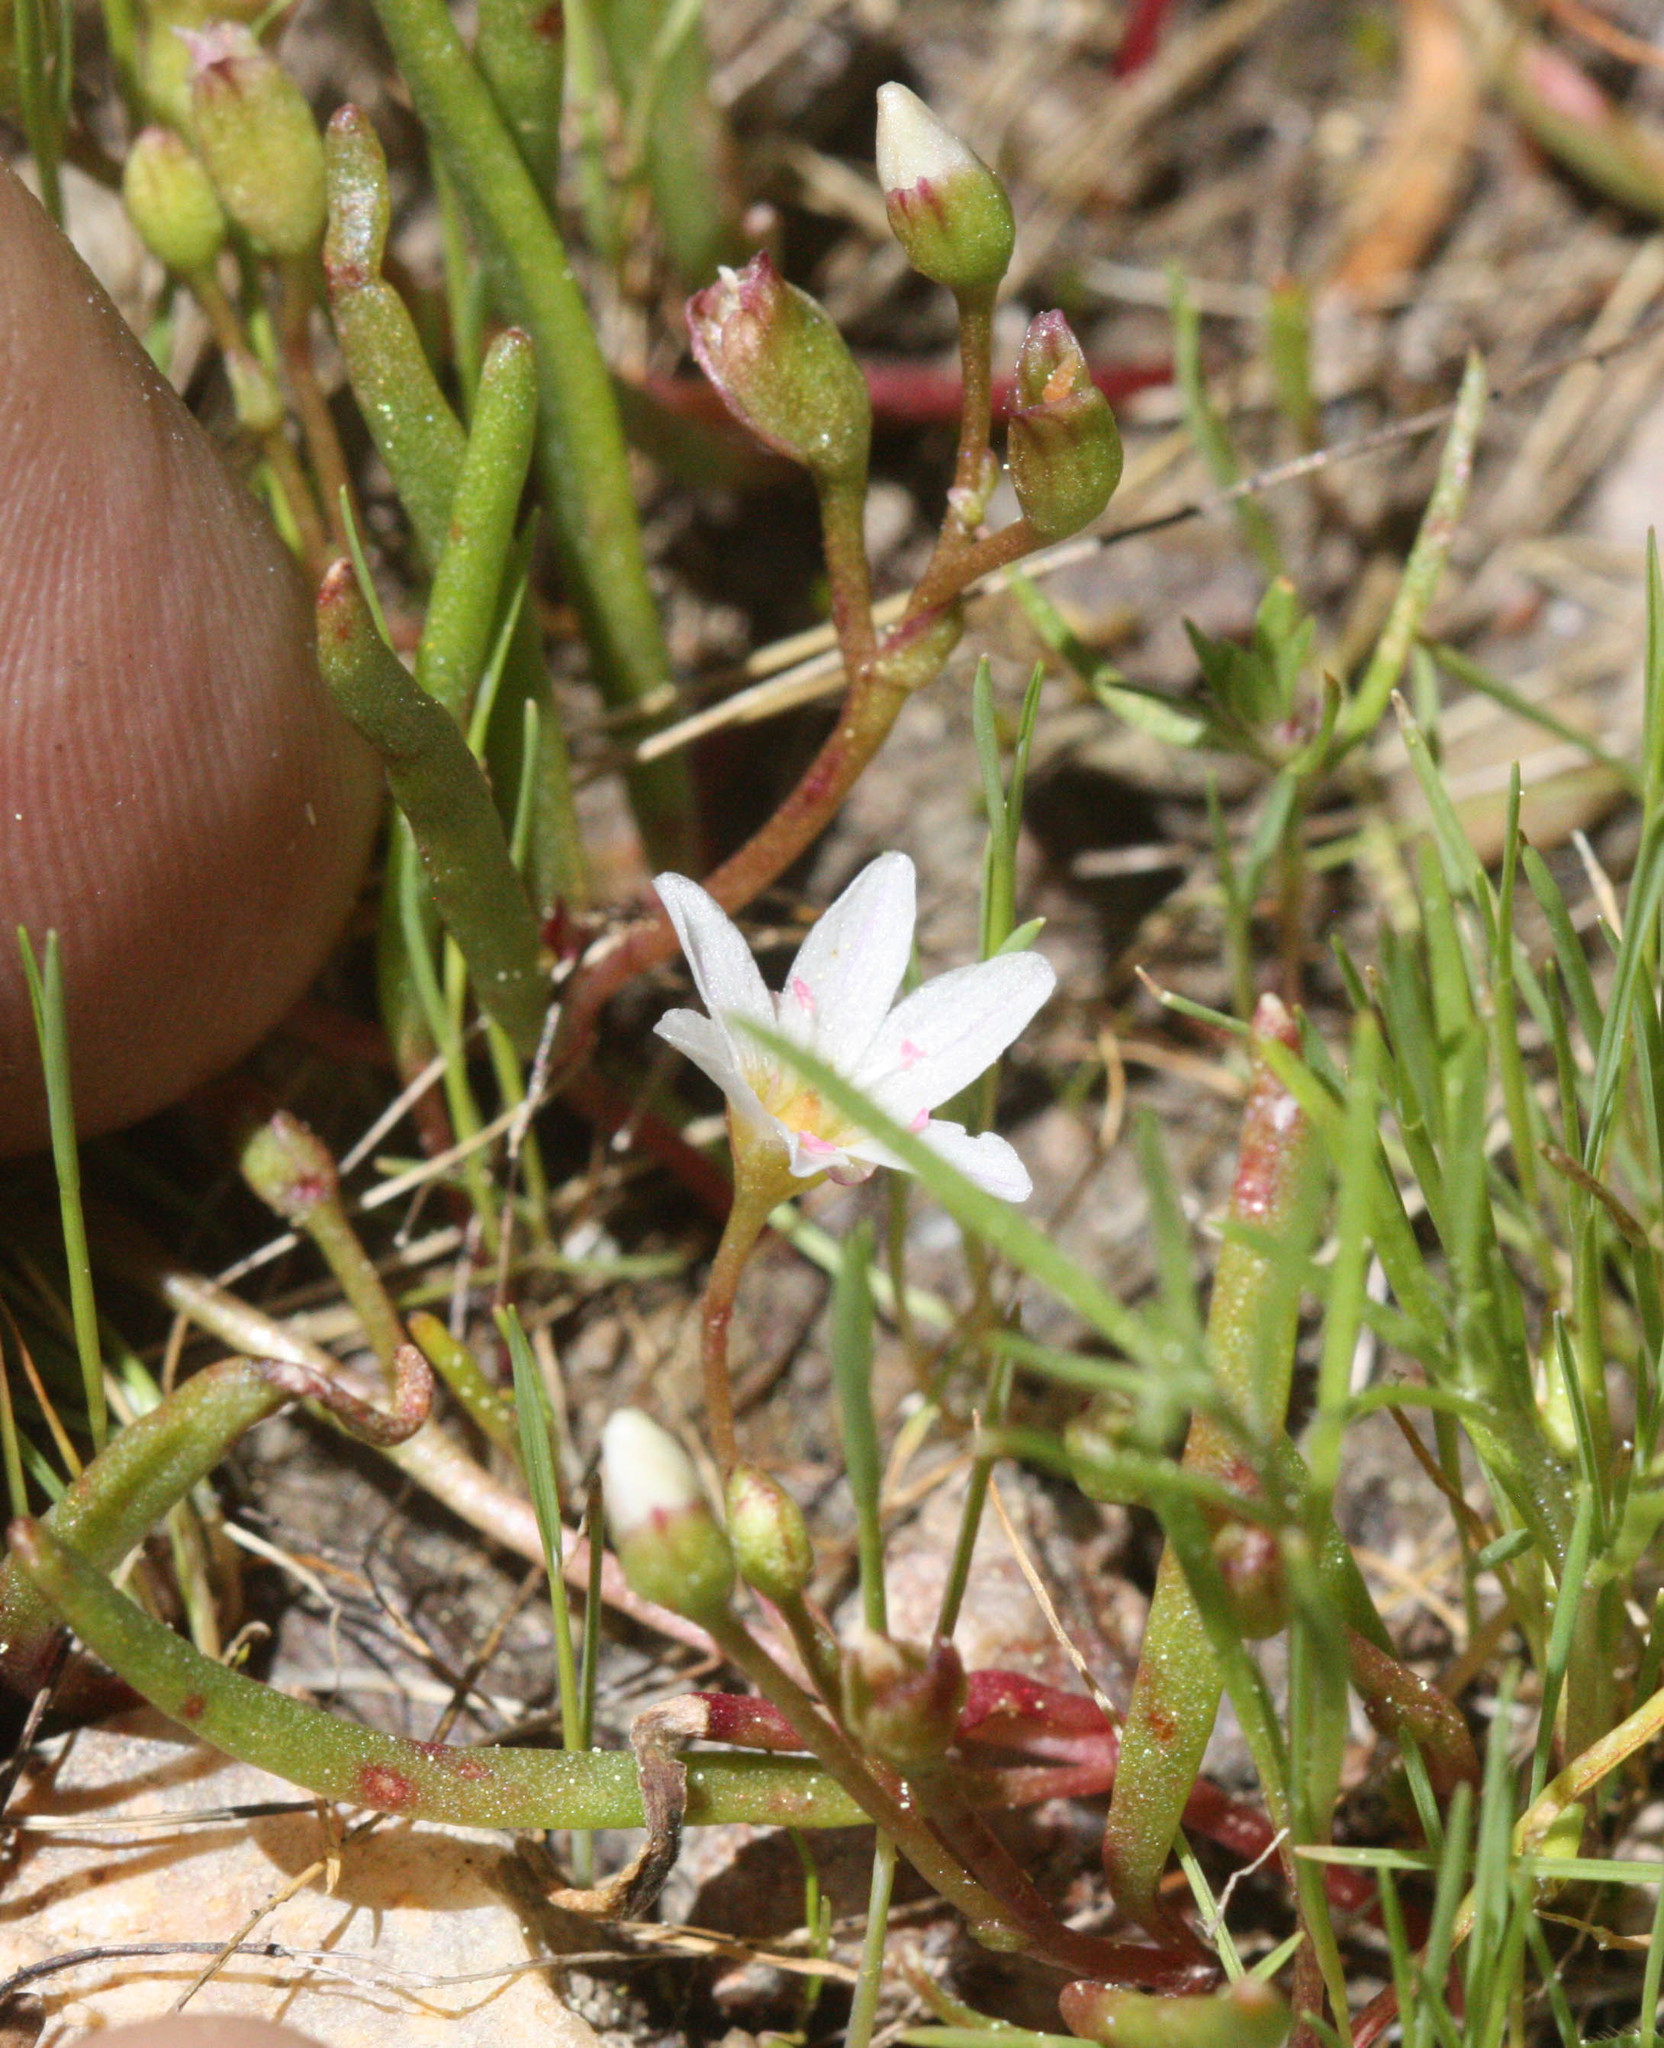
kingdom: Plantae
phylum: Tracheophyta
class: Magnoliopsida
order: Caryophyllales
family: Montiaceae
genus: Lewisia
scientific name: Lewisia triphylla
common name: Three-leaved bitterroot
